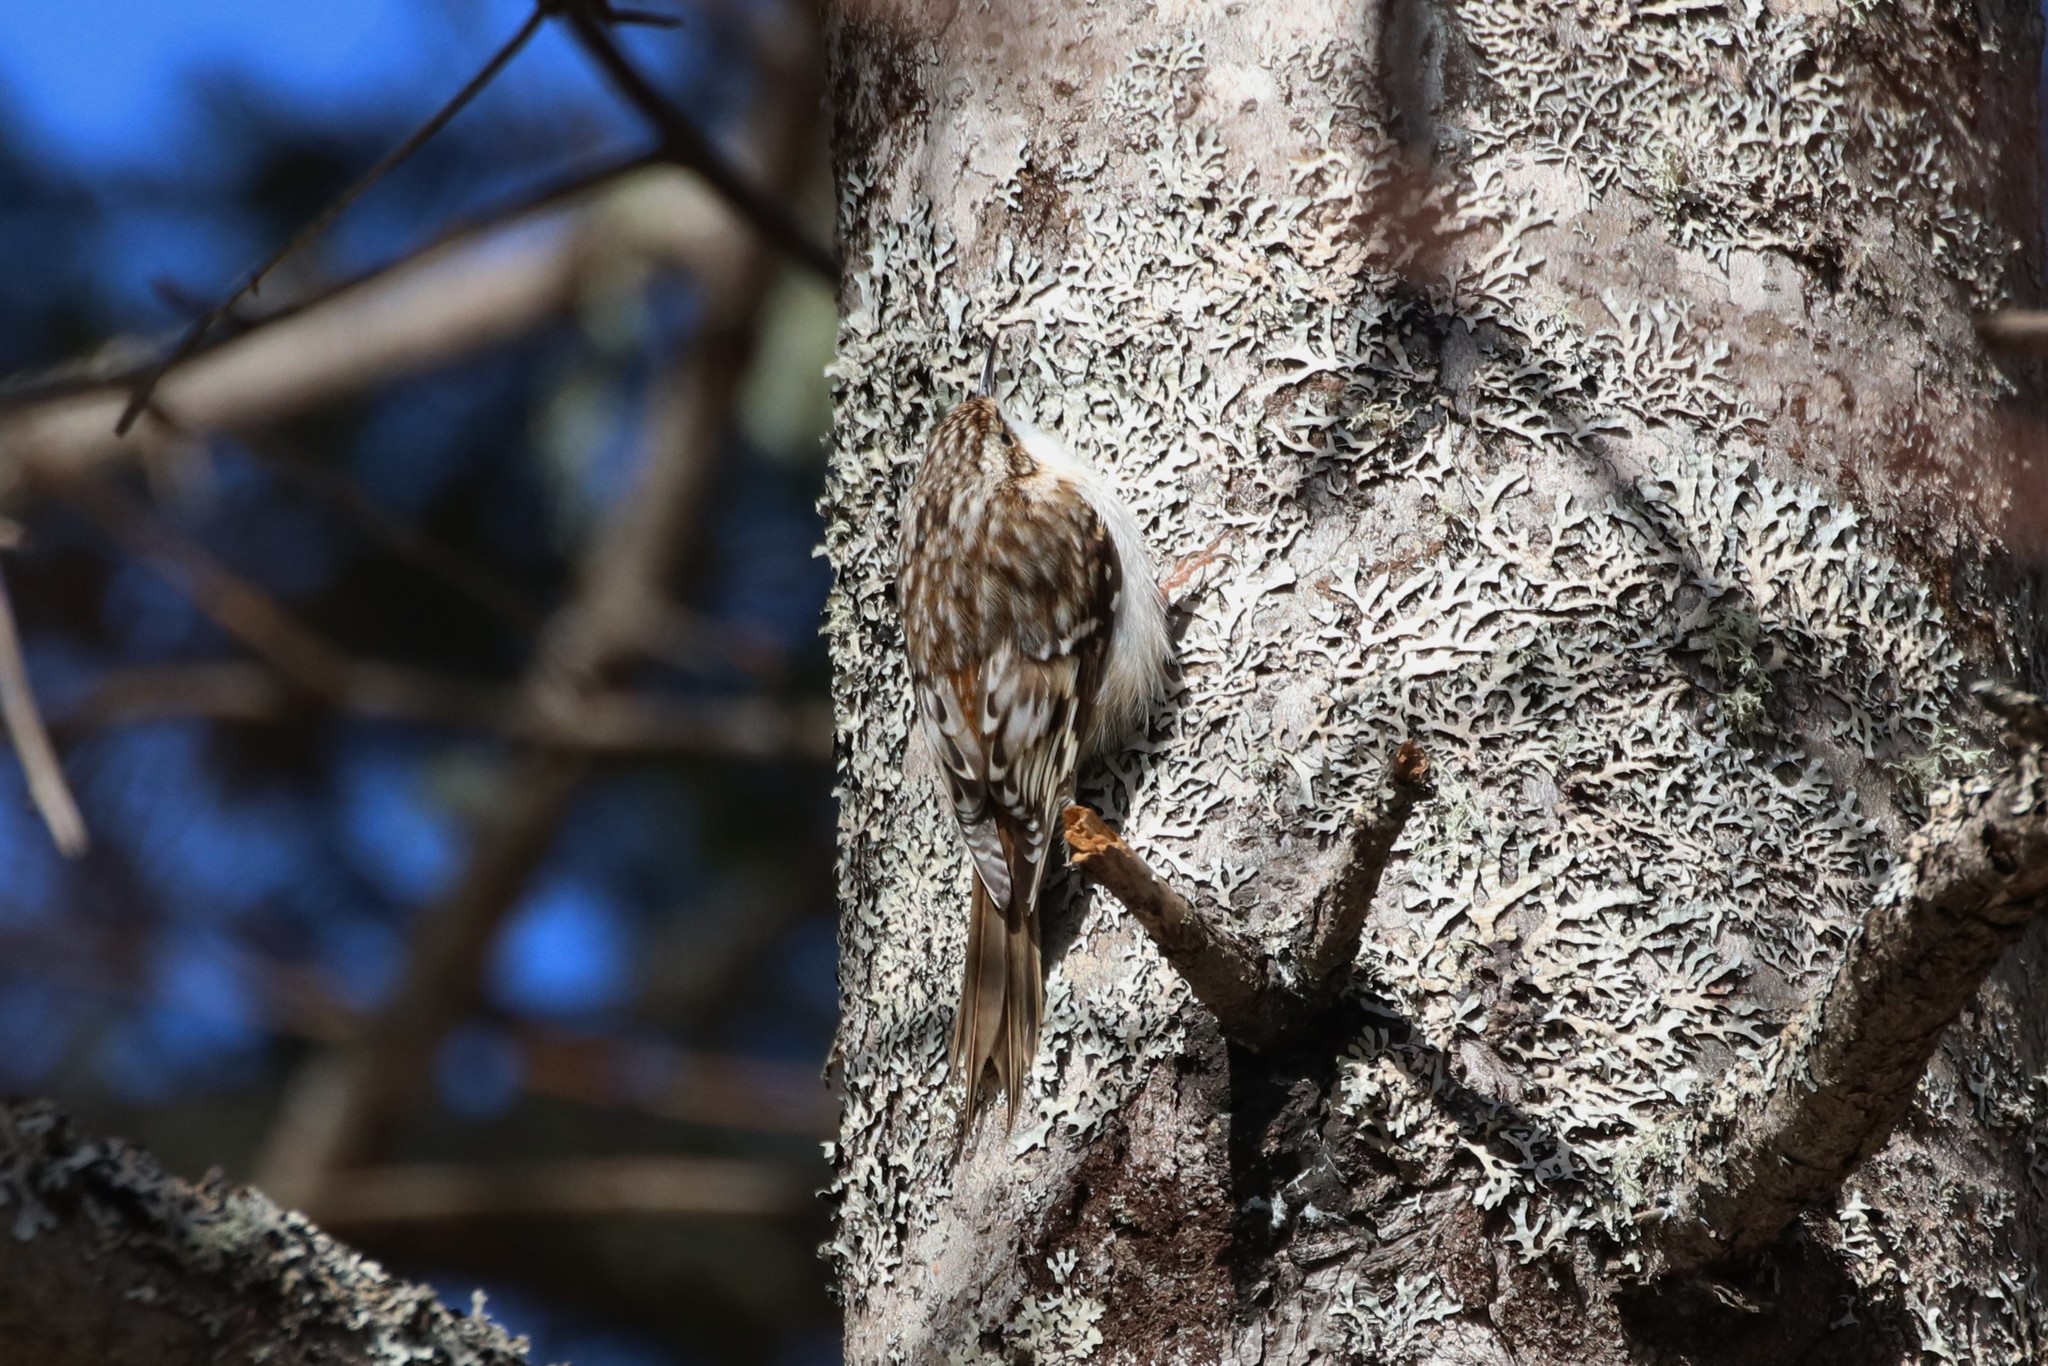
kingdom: Animalia
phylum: Chordata
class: Aves
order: Passeriformes
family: Certhiidae
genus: Certhia
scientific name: Certhia americana
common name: Brown creeper
